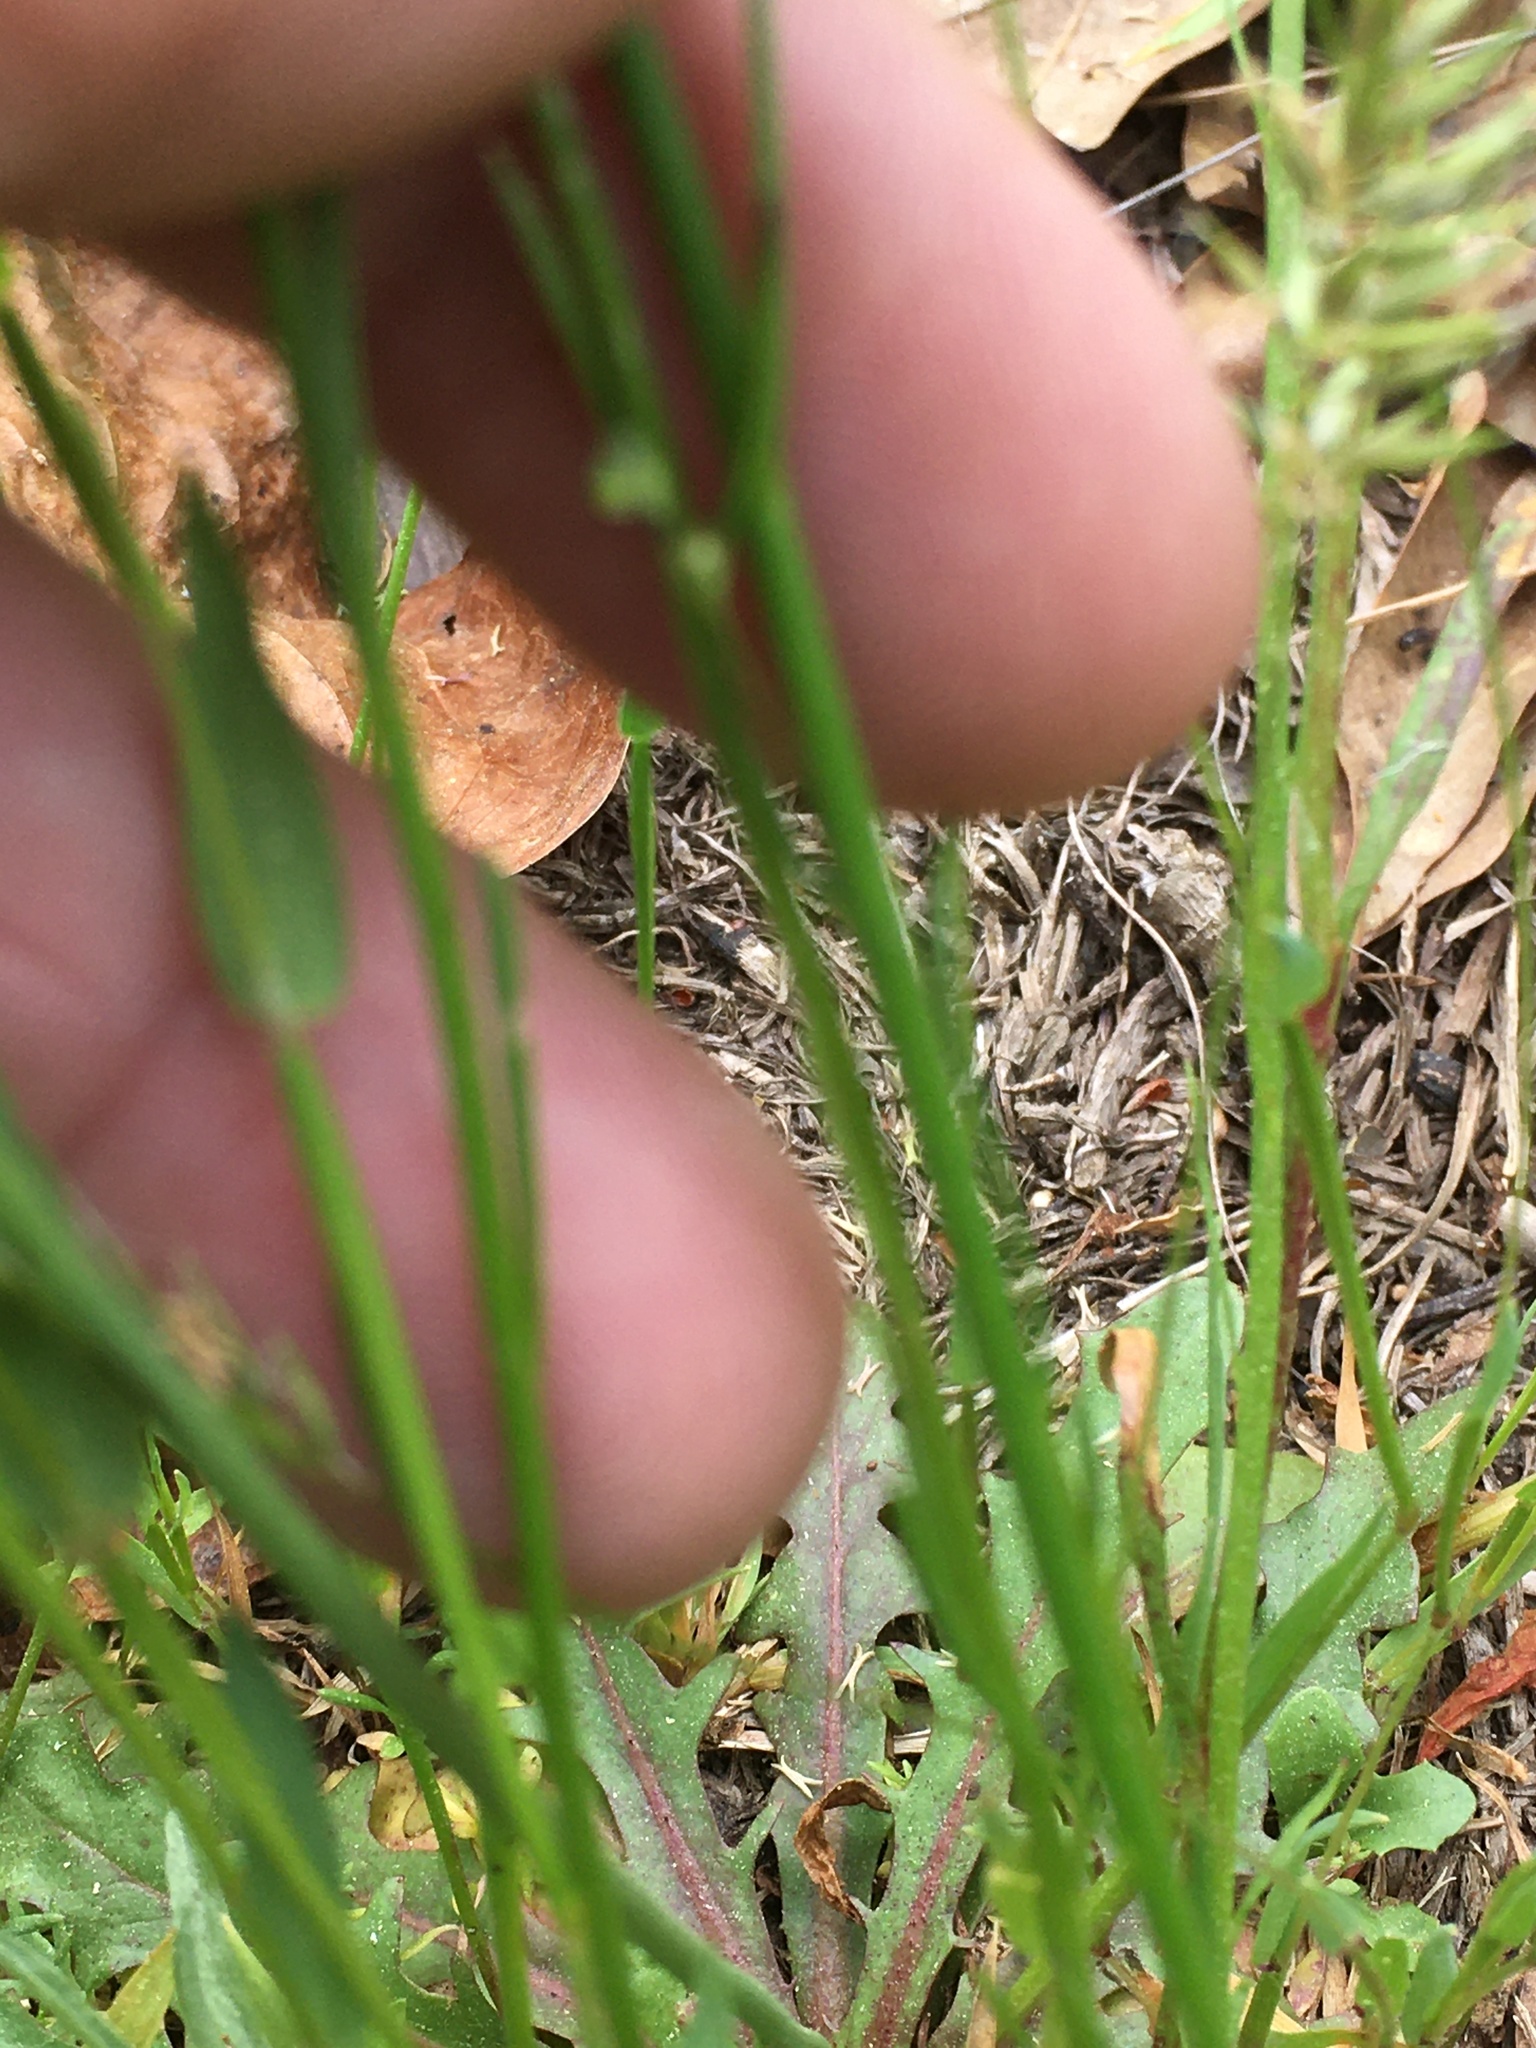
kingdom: Plantae
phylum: Tracheophyta
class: Magnoliopsida
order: Lamiales
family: Plantaginaceae
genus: Nuttallanthus
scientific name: Nuttallanthus canadensis
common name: Blue toadflax
